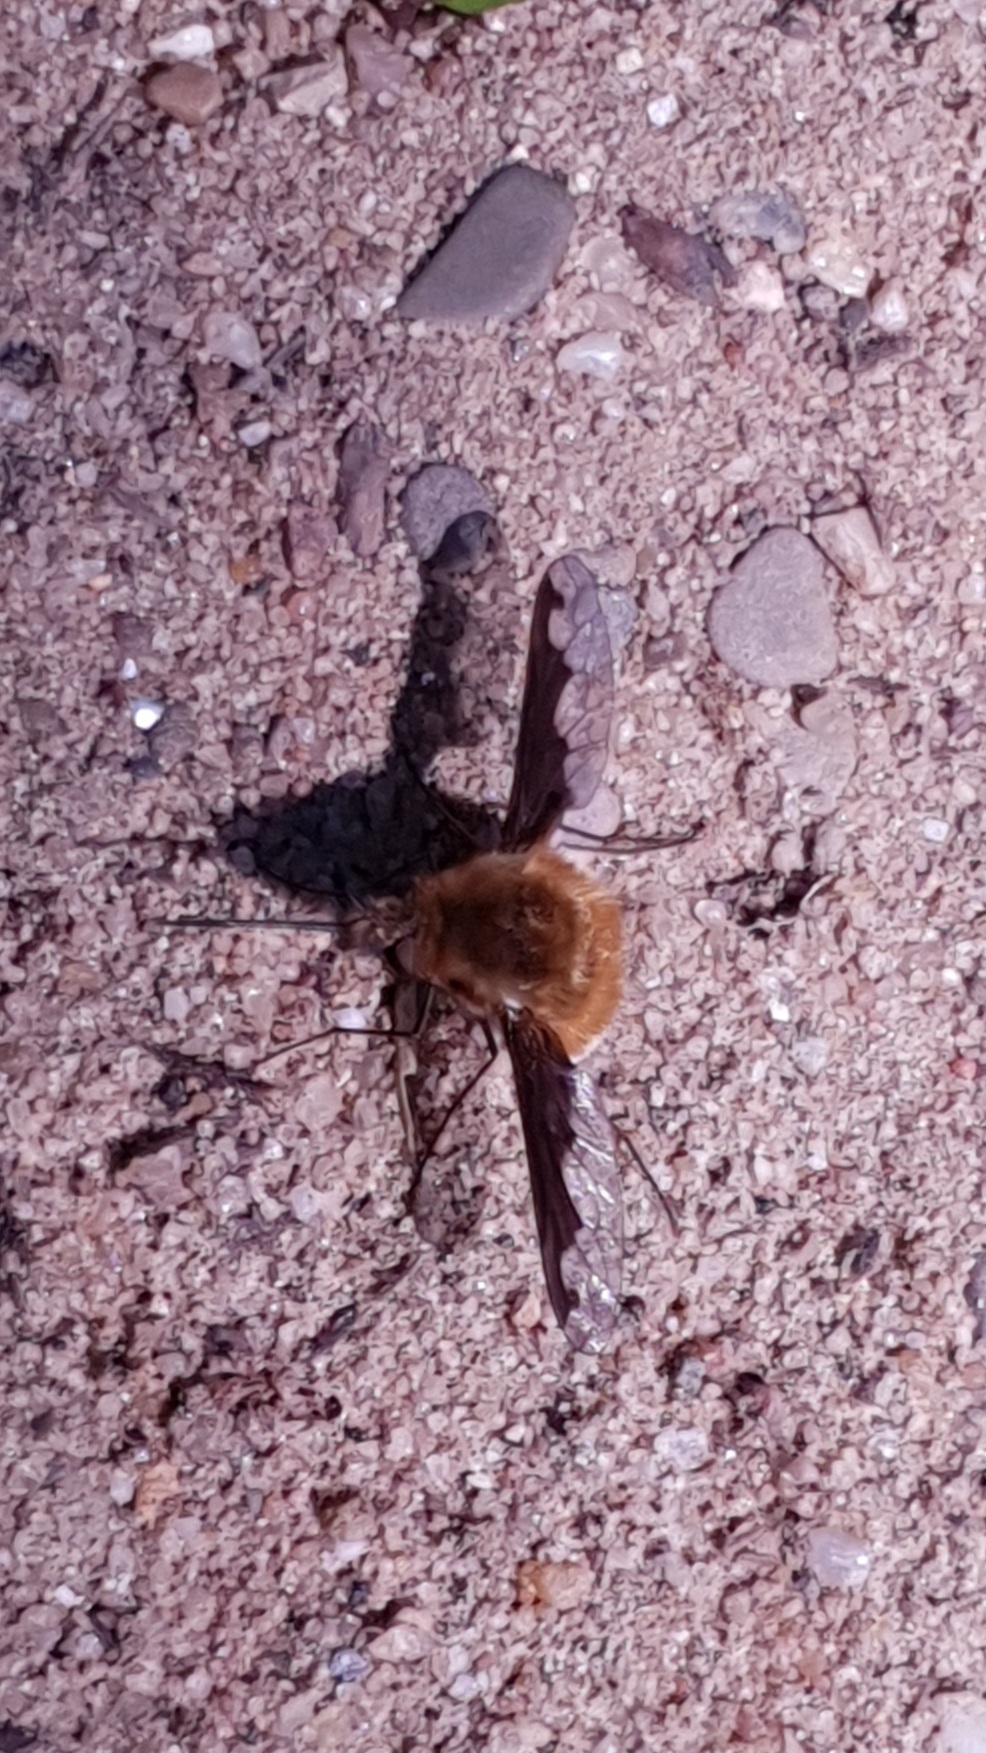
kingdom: Animalia
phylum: Arthropoda
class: Insecta
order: Diptera
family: Bombyliidae
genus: Bombylius
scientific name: Bombylius major
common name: Bee fly
